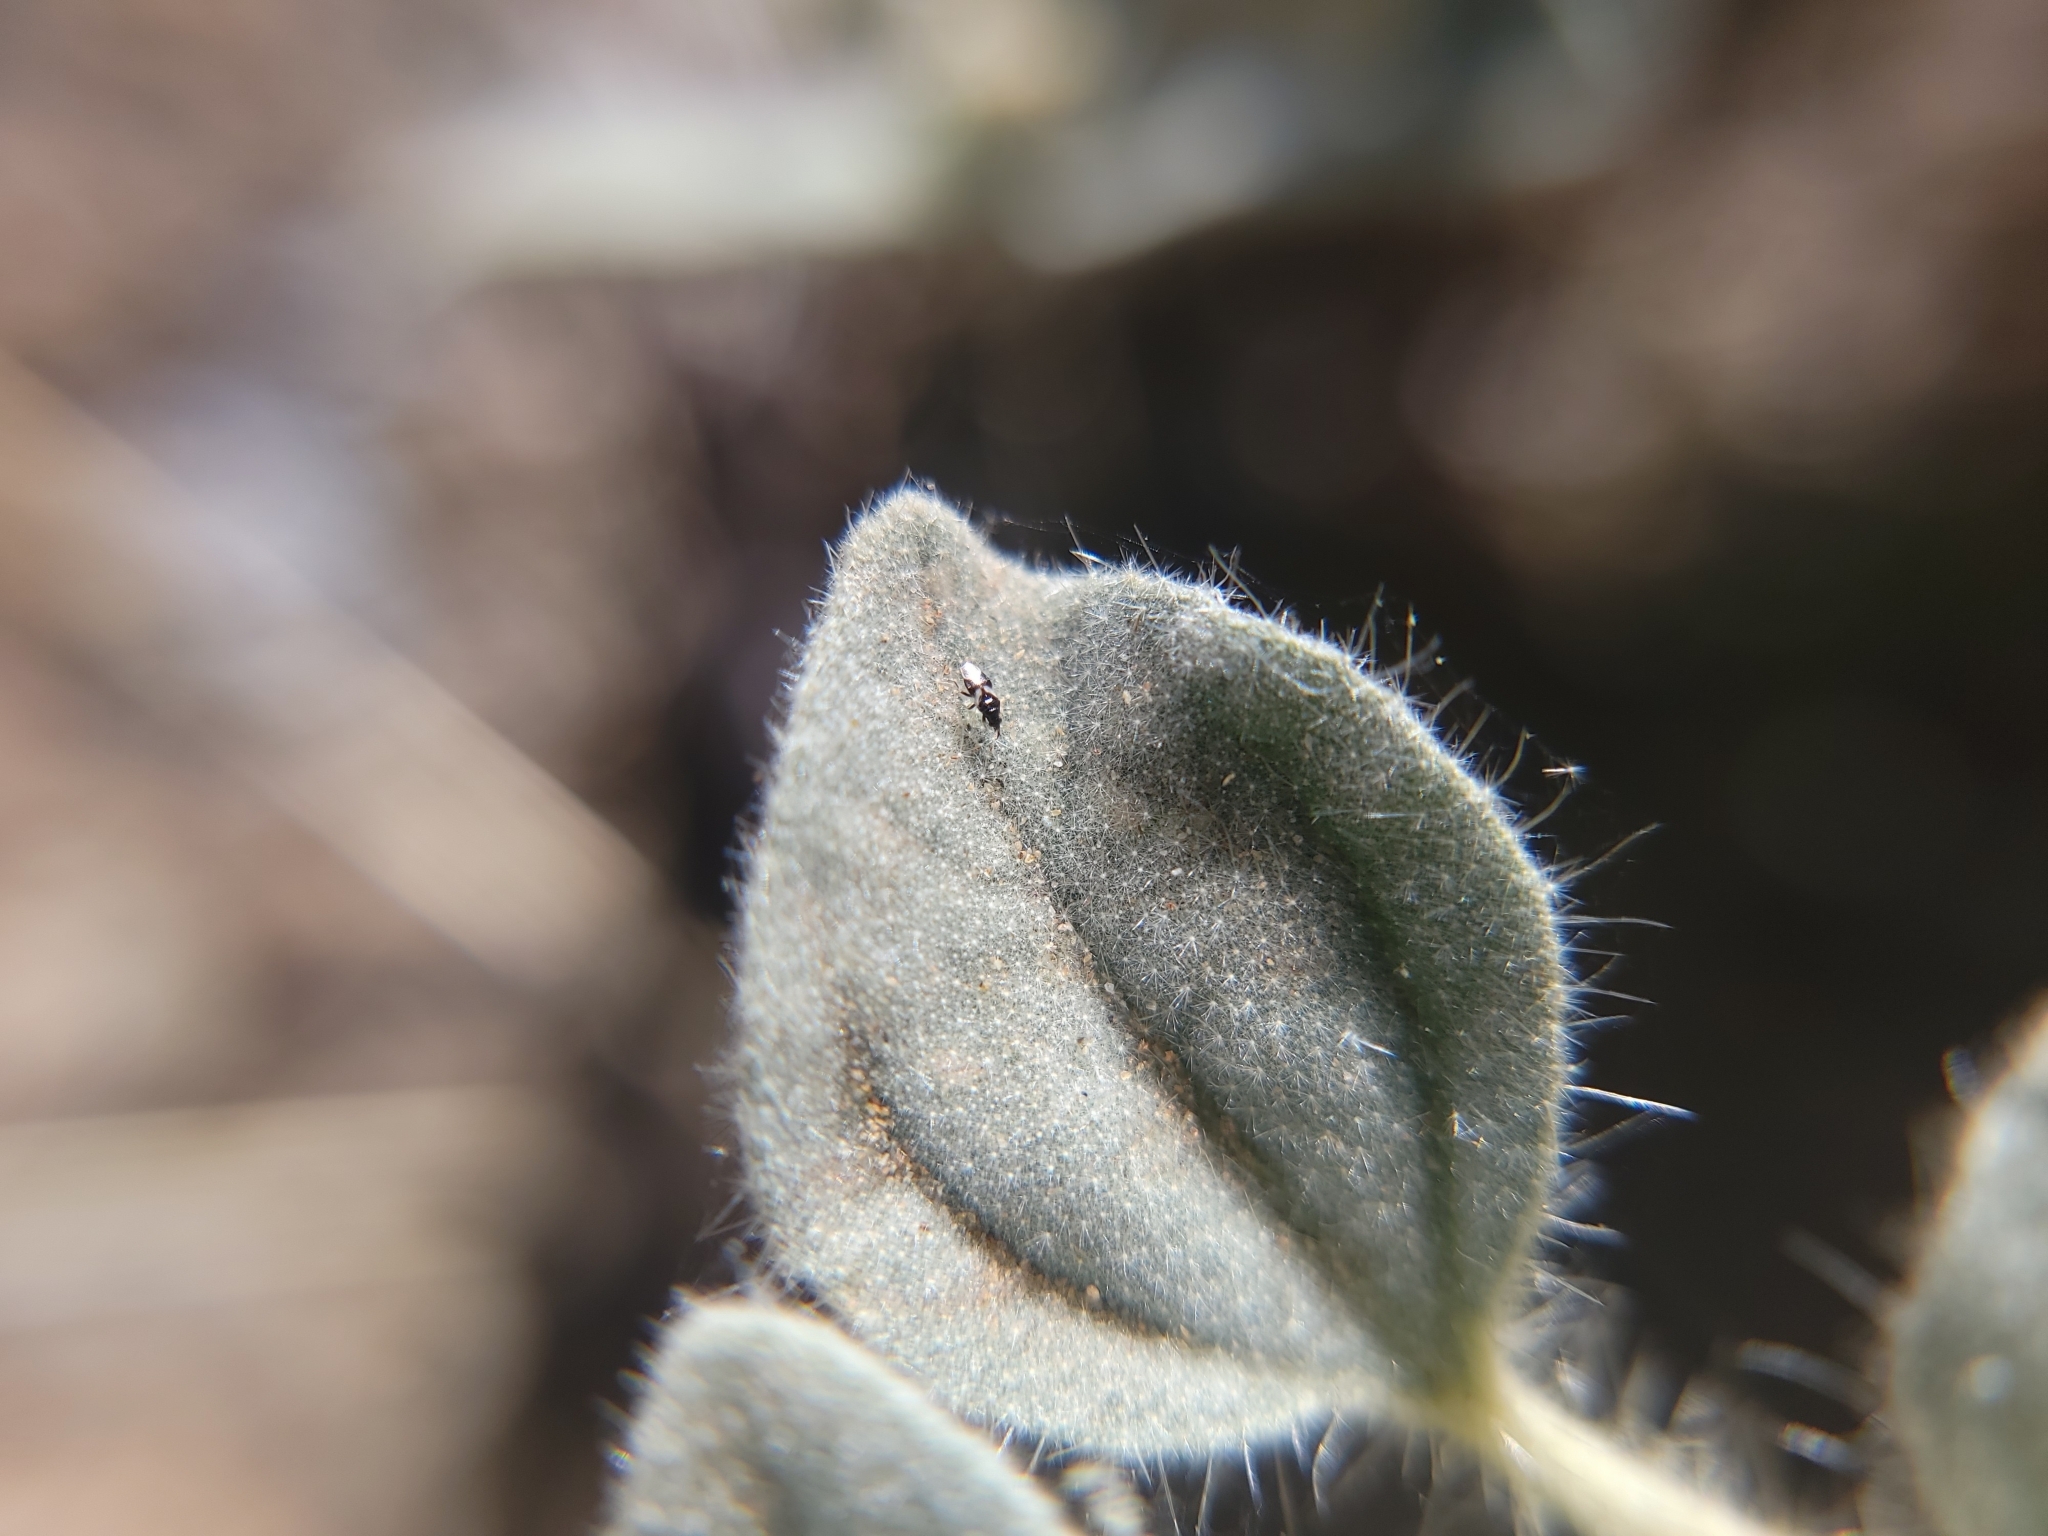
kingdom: Animalia
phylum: Arthropoda
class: Insecta
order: Hemiptera
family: Anthocoridae
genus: Orius
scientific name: Orius tristicolor
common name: Minute pirate bug
